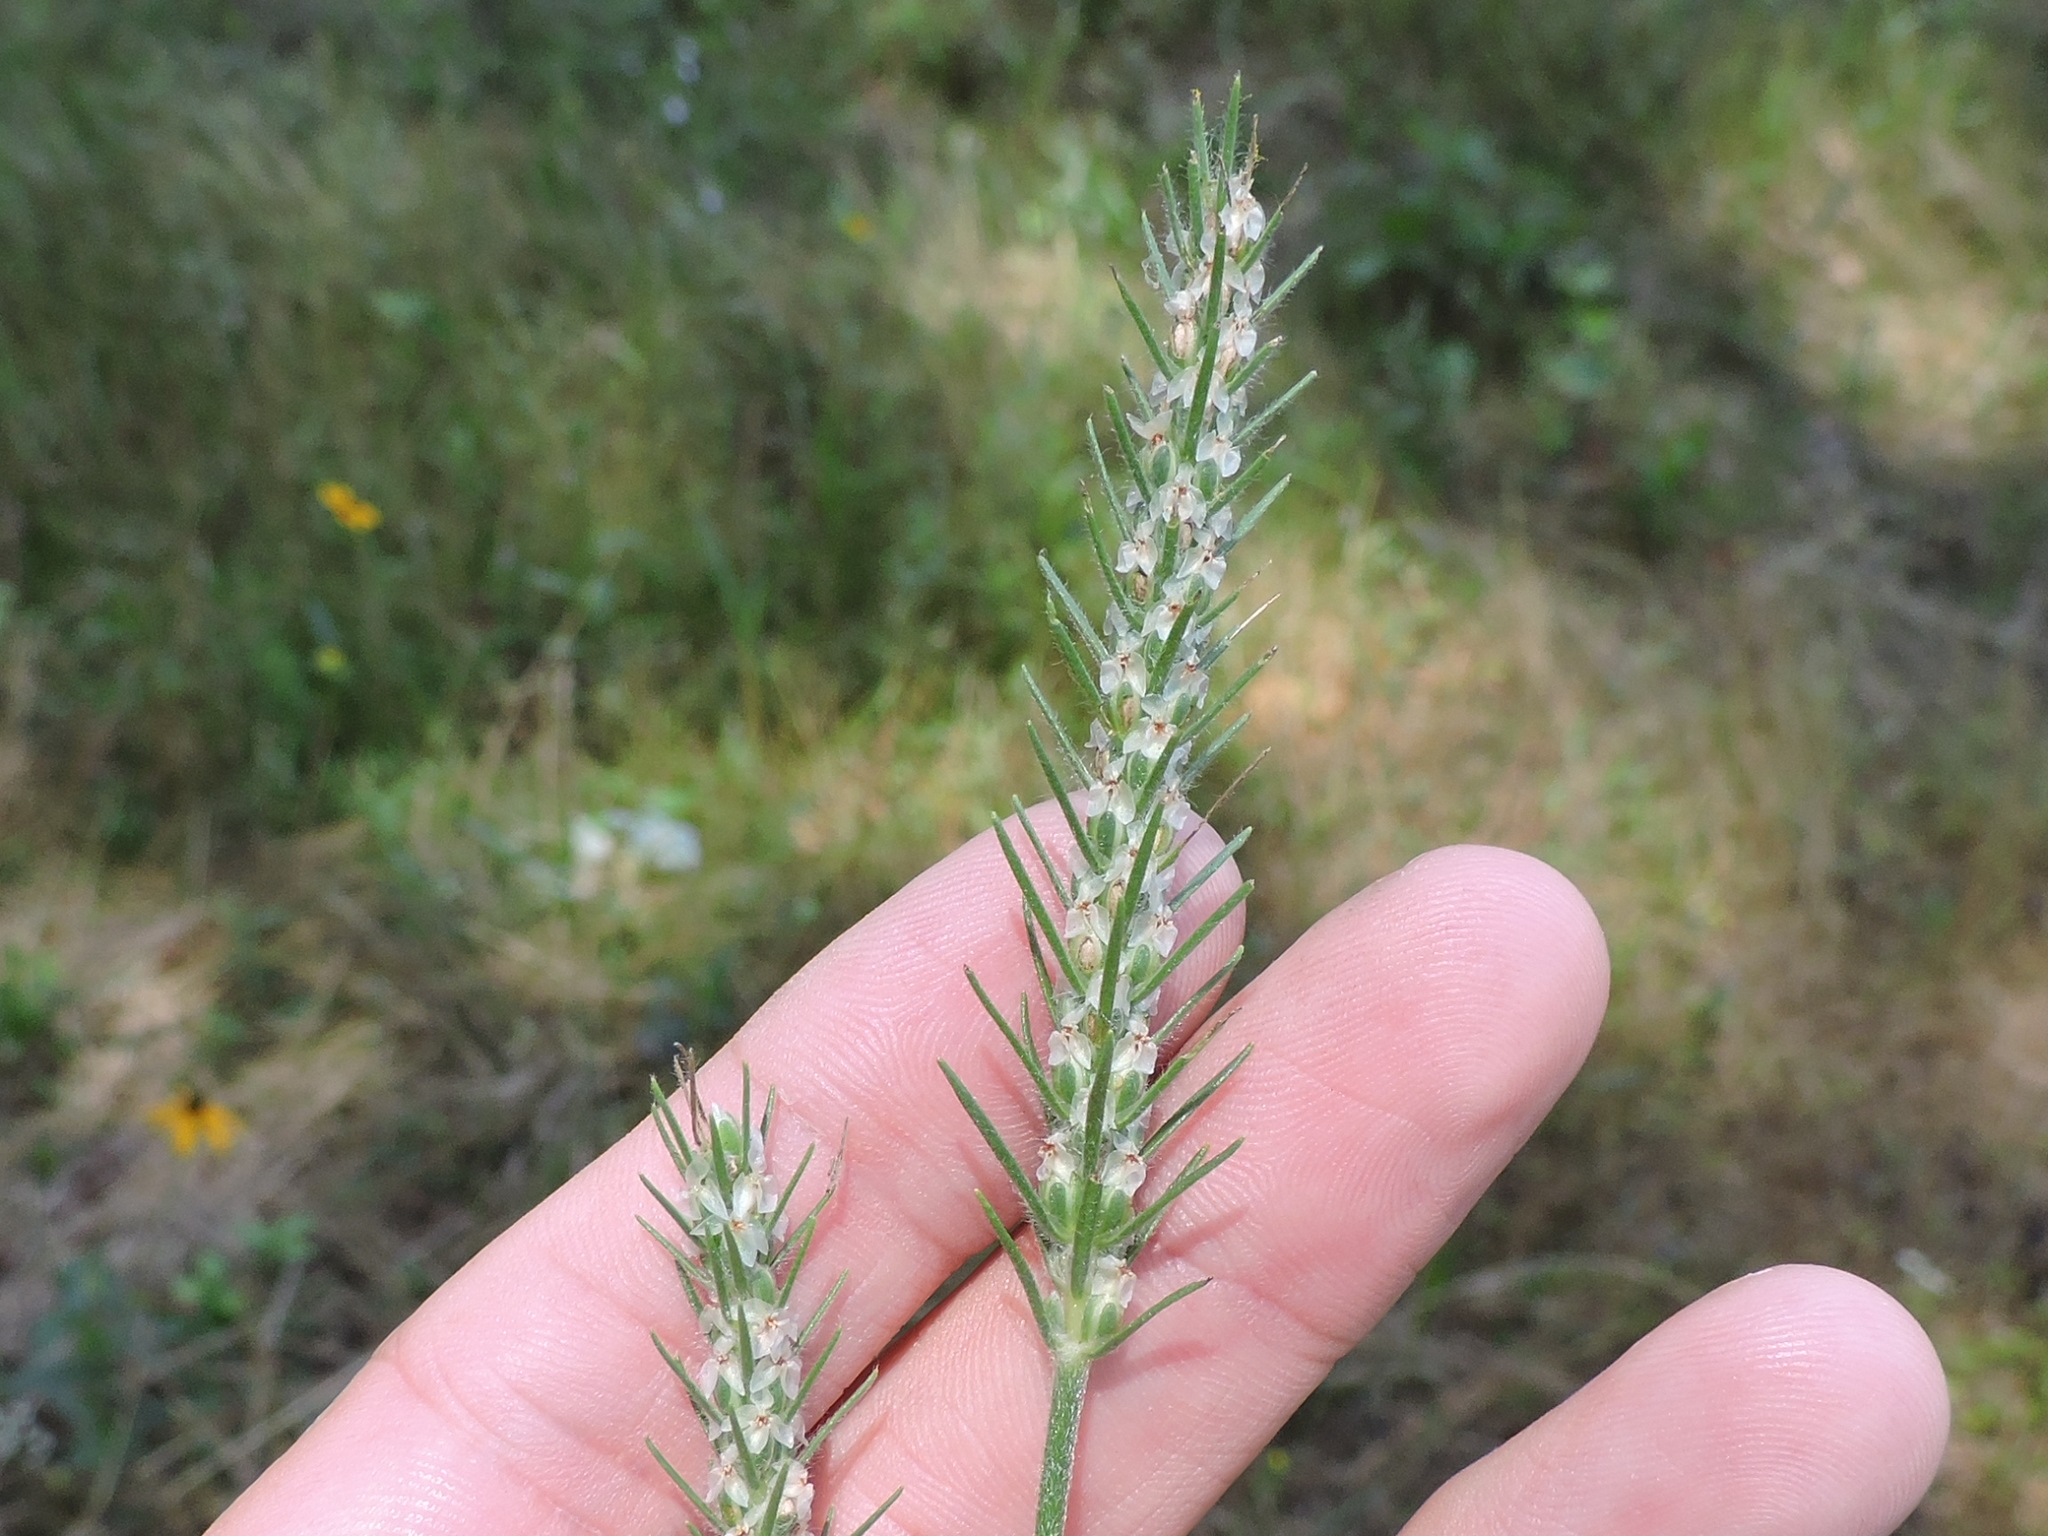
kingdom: Plantae
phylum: Tracheophyta
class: Magnoliopsida
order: Lamiales
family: Plantaginaceae
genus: Plantago
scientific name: Plantago aristata
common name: Bracted plantain
